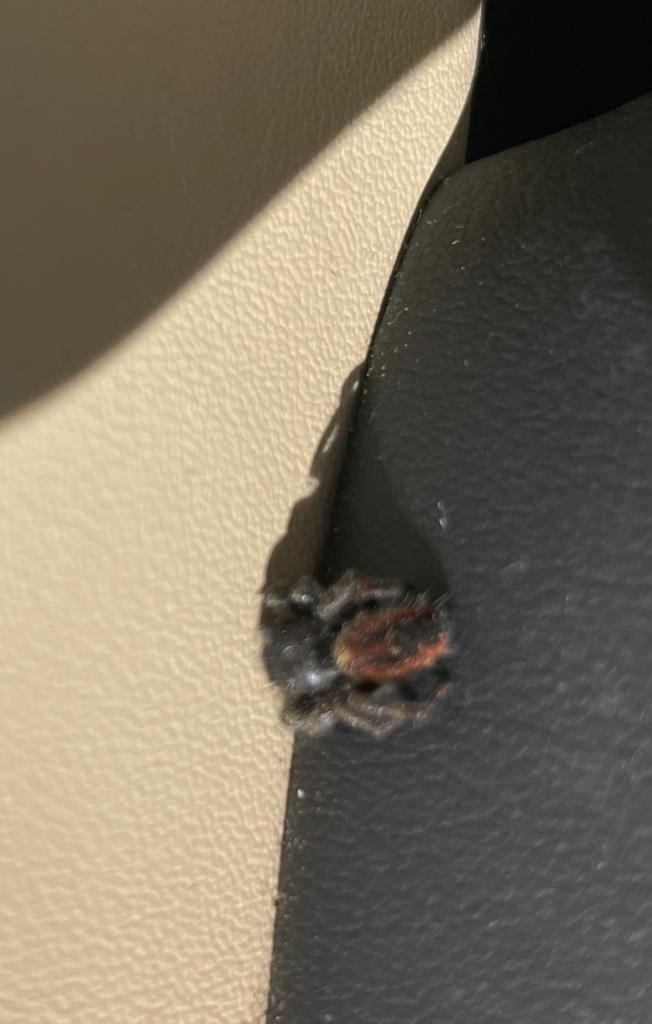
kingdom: Animalia
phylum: Arthropoda
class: Arachnida
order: Araneae
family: Salticidae
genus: Phidippus
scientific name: Phidippus johnsoni
